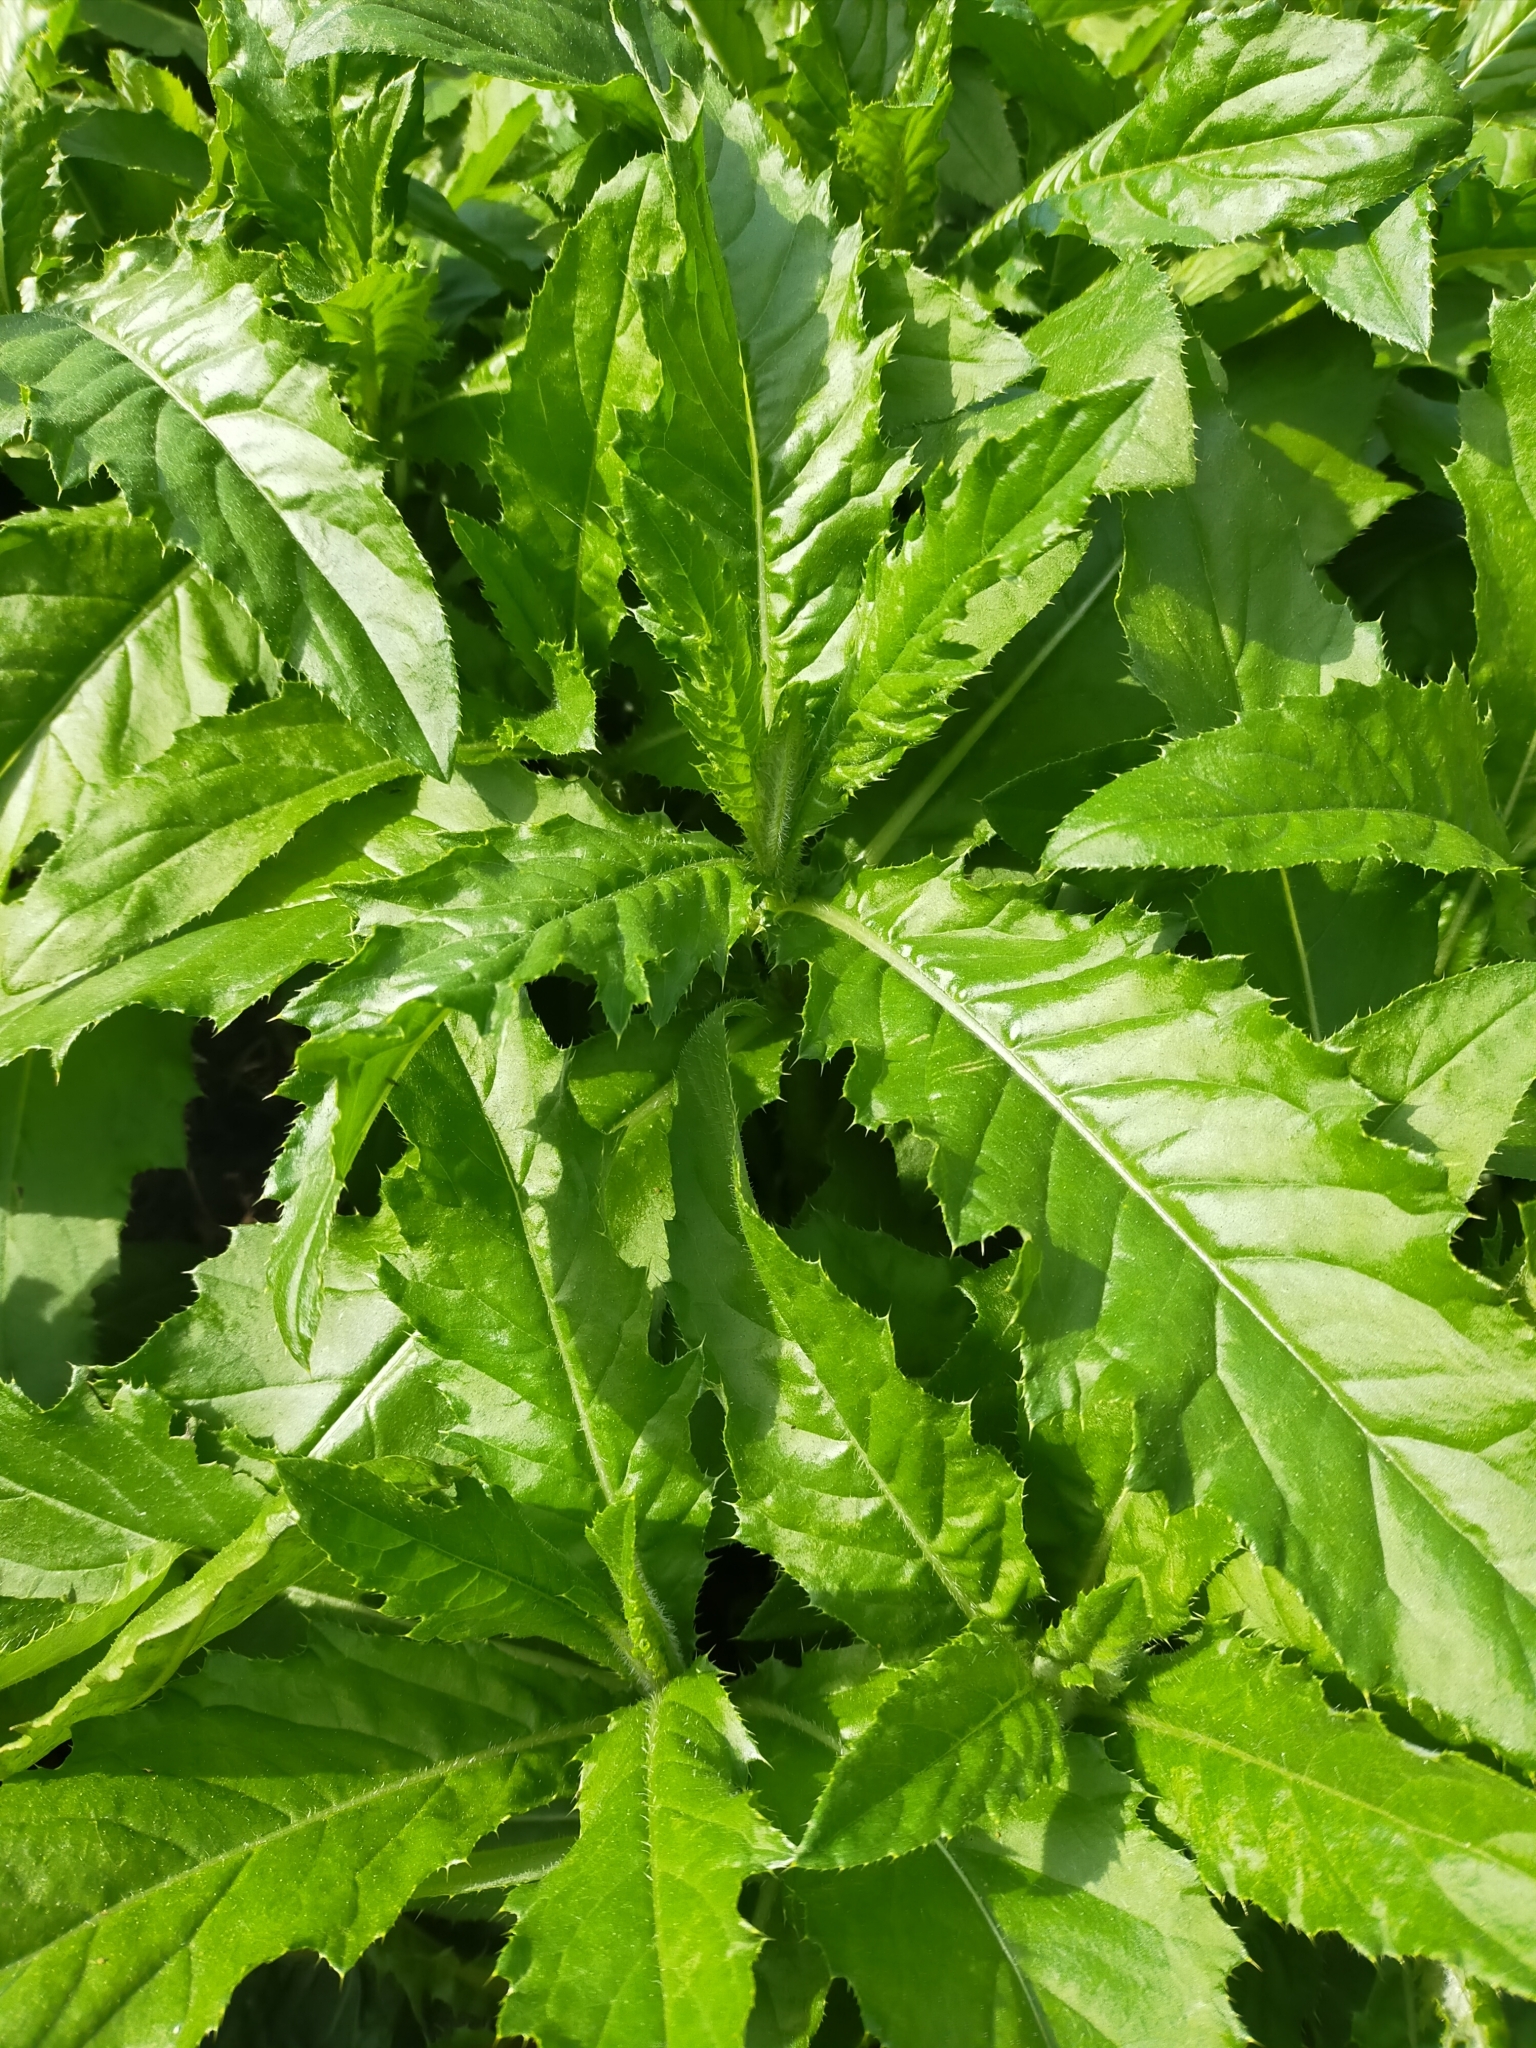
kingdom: Plantae
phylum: Tracheophyta
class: Magnoliopsida
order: Asterales
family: Asteraceae
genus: Cirsium
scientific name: Cirsium arvense
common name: Creeping thistle
